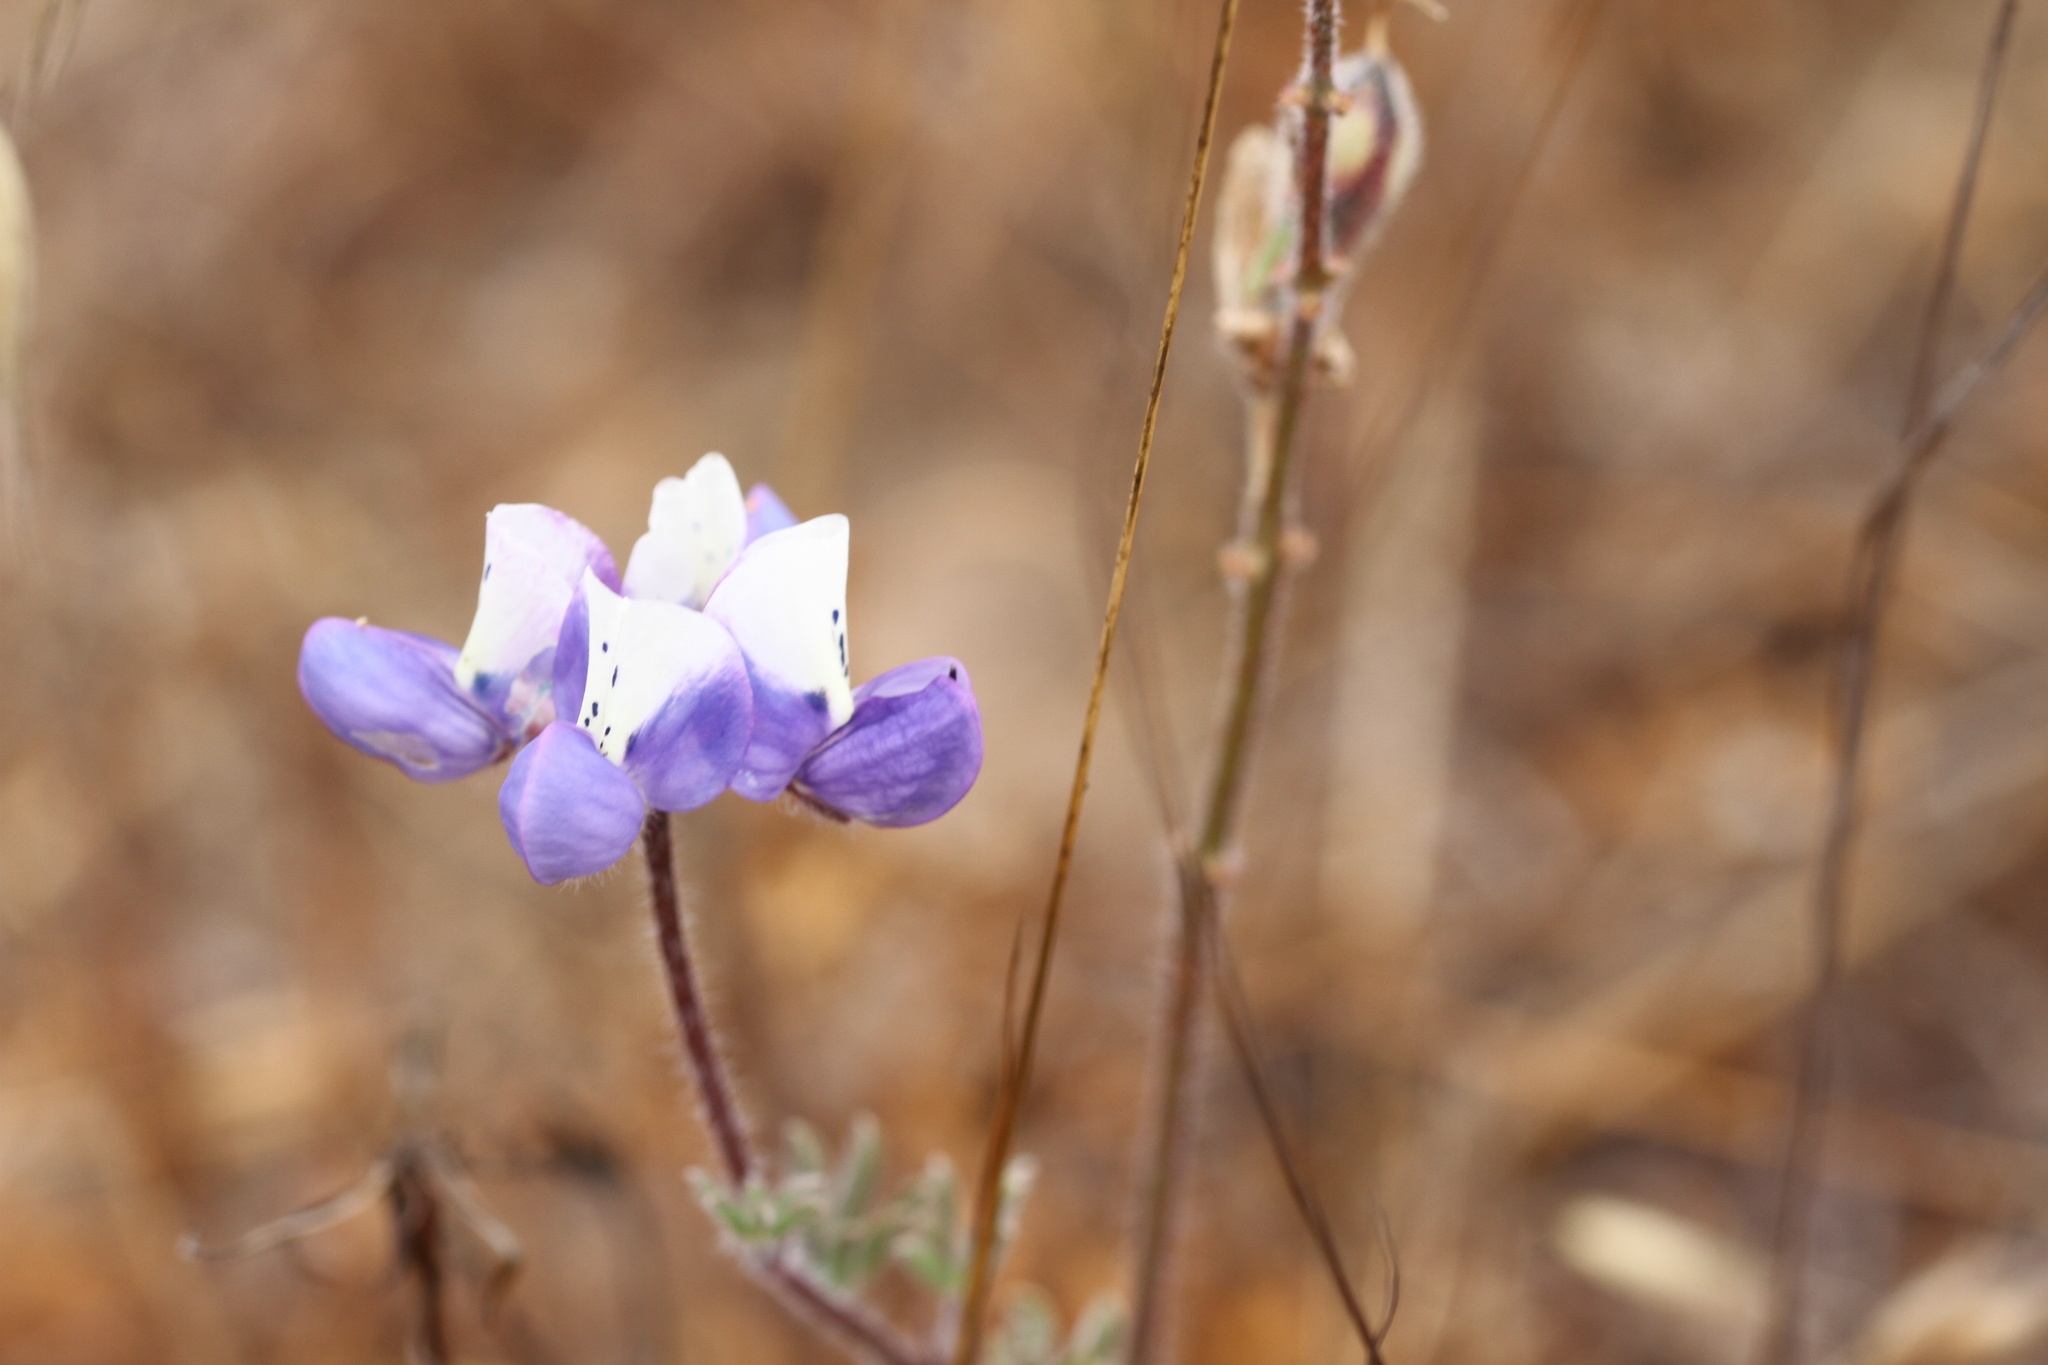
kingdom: Plantae
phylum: Tracheophyta
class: Magnoliopsida
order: Fabales
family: Fabaceae
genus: Lupinus
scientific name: Lupinus nanus
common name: Orean blue lupin
